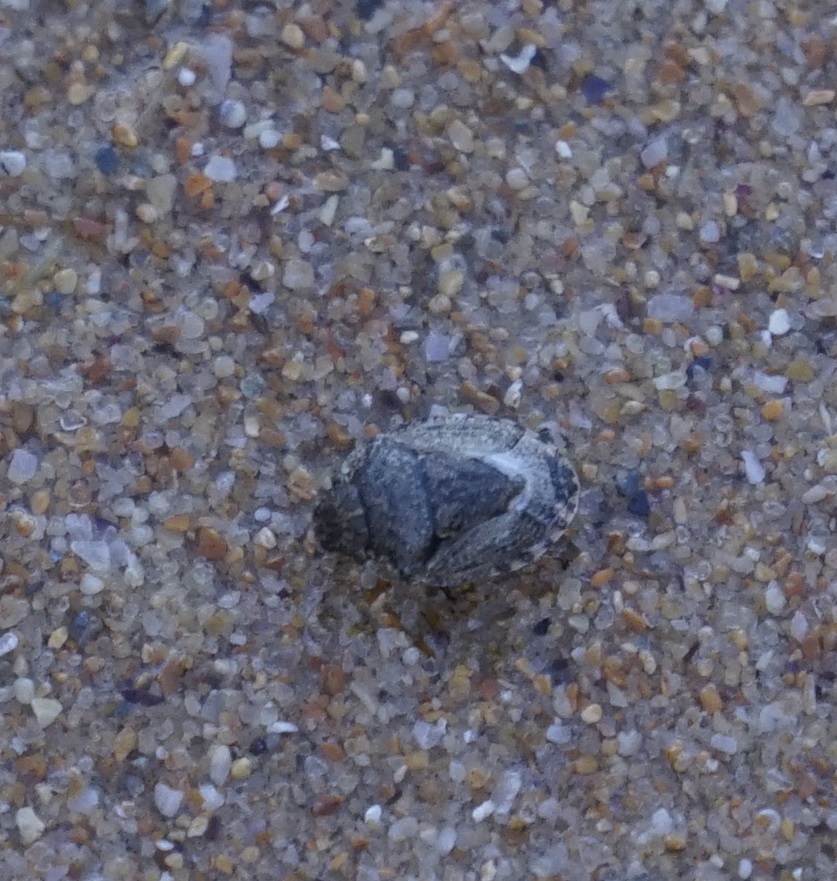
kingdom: Animalia
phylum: Arthropoda
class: Insecta
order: Hemiptera
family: Pentatomidae
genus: Kapunda
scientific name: Kapunda traughtoni
